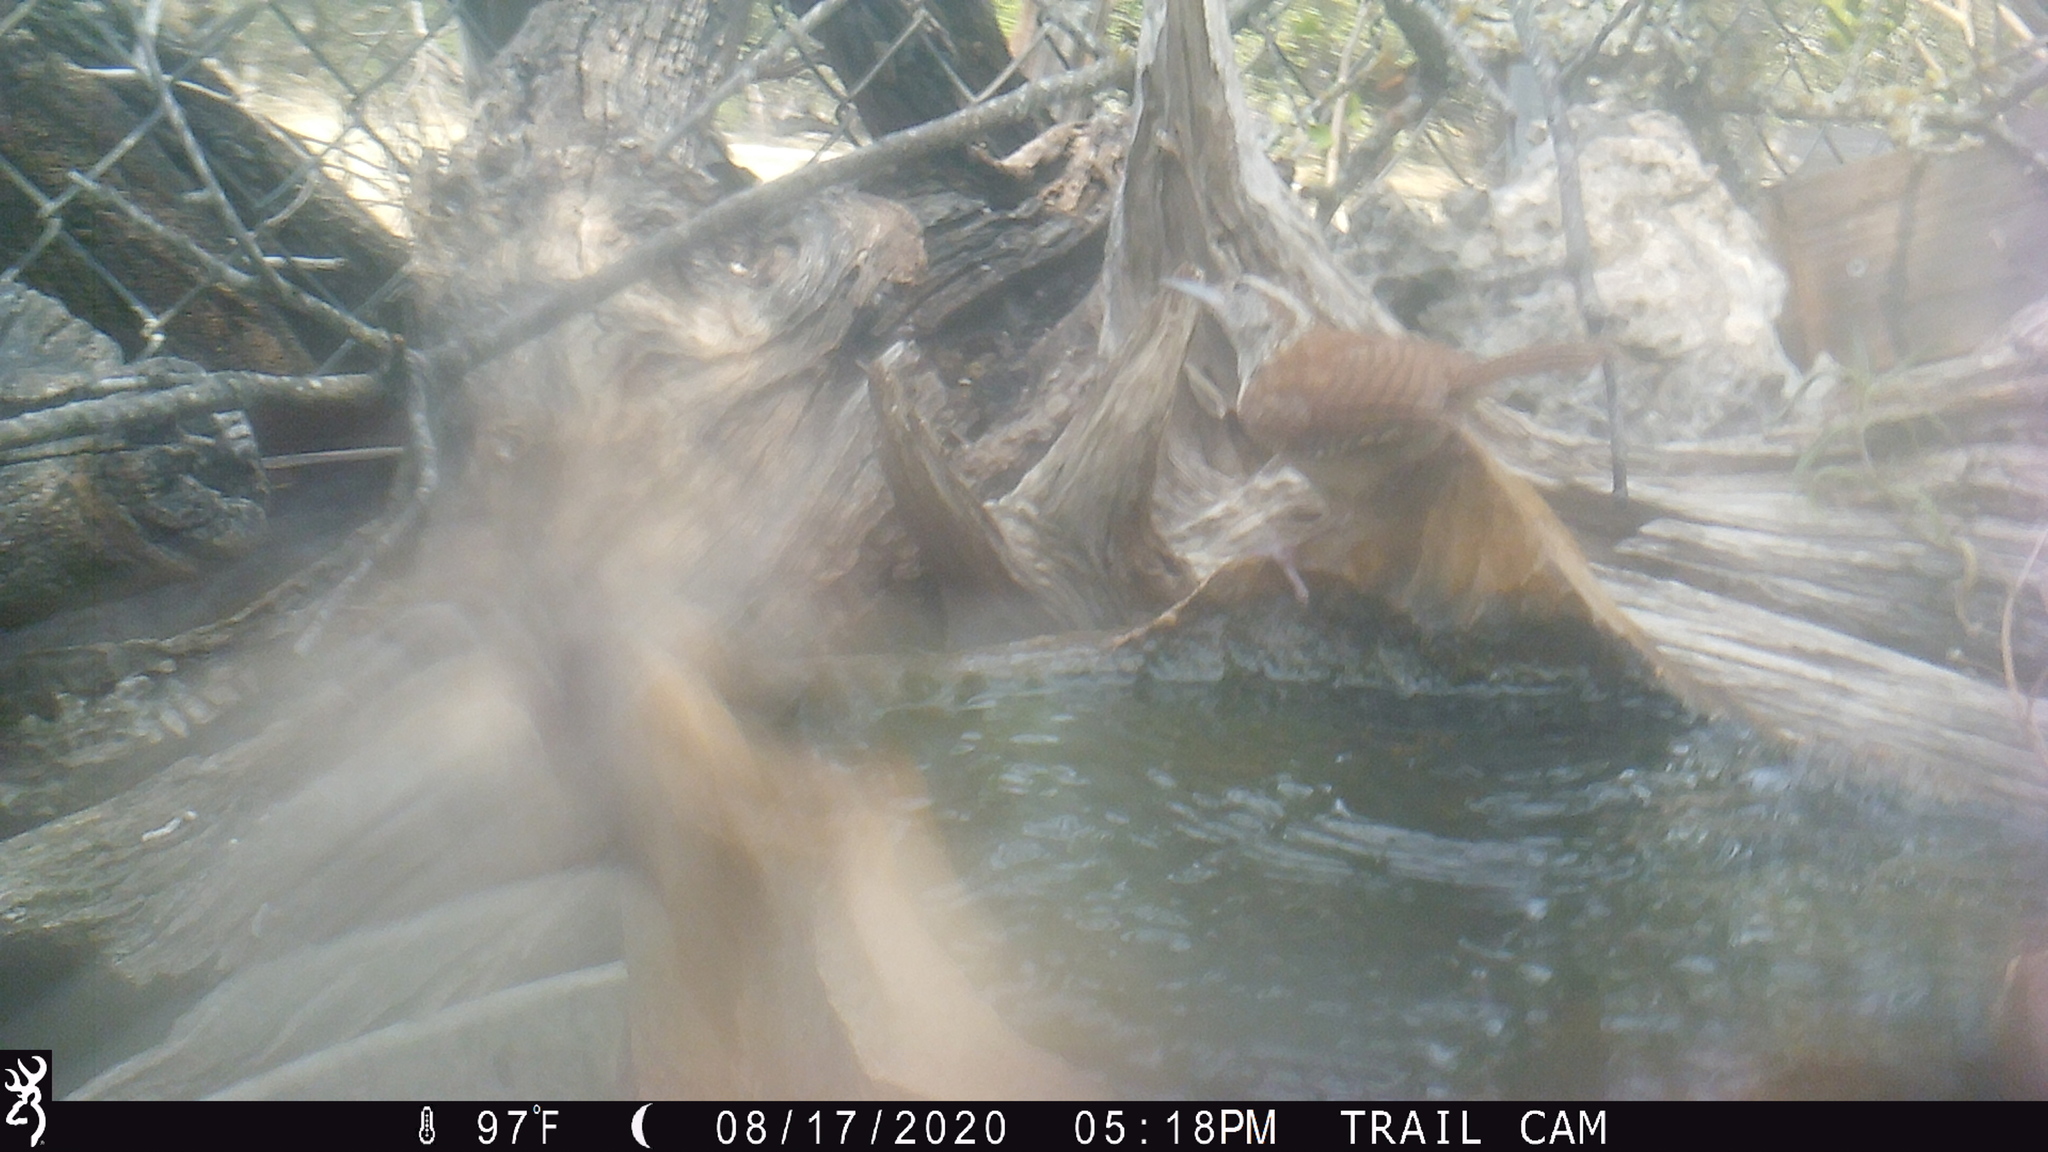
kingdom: Animalia
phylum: Chordata
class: Aves
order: Passeriformes
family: Troglodytidae
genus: Thryothorus
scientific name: Thryothorus ludovicianus
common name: Carolina wren
